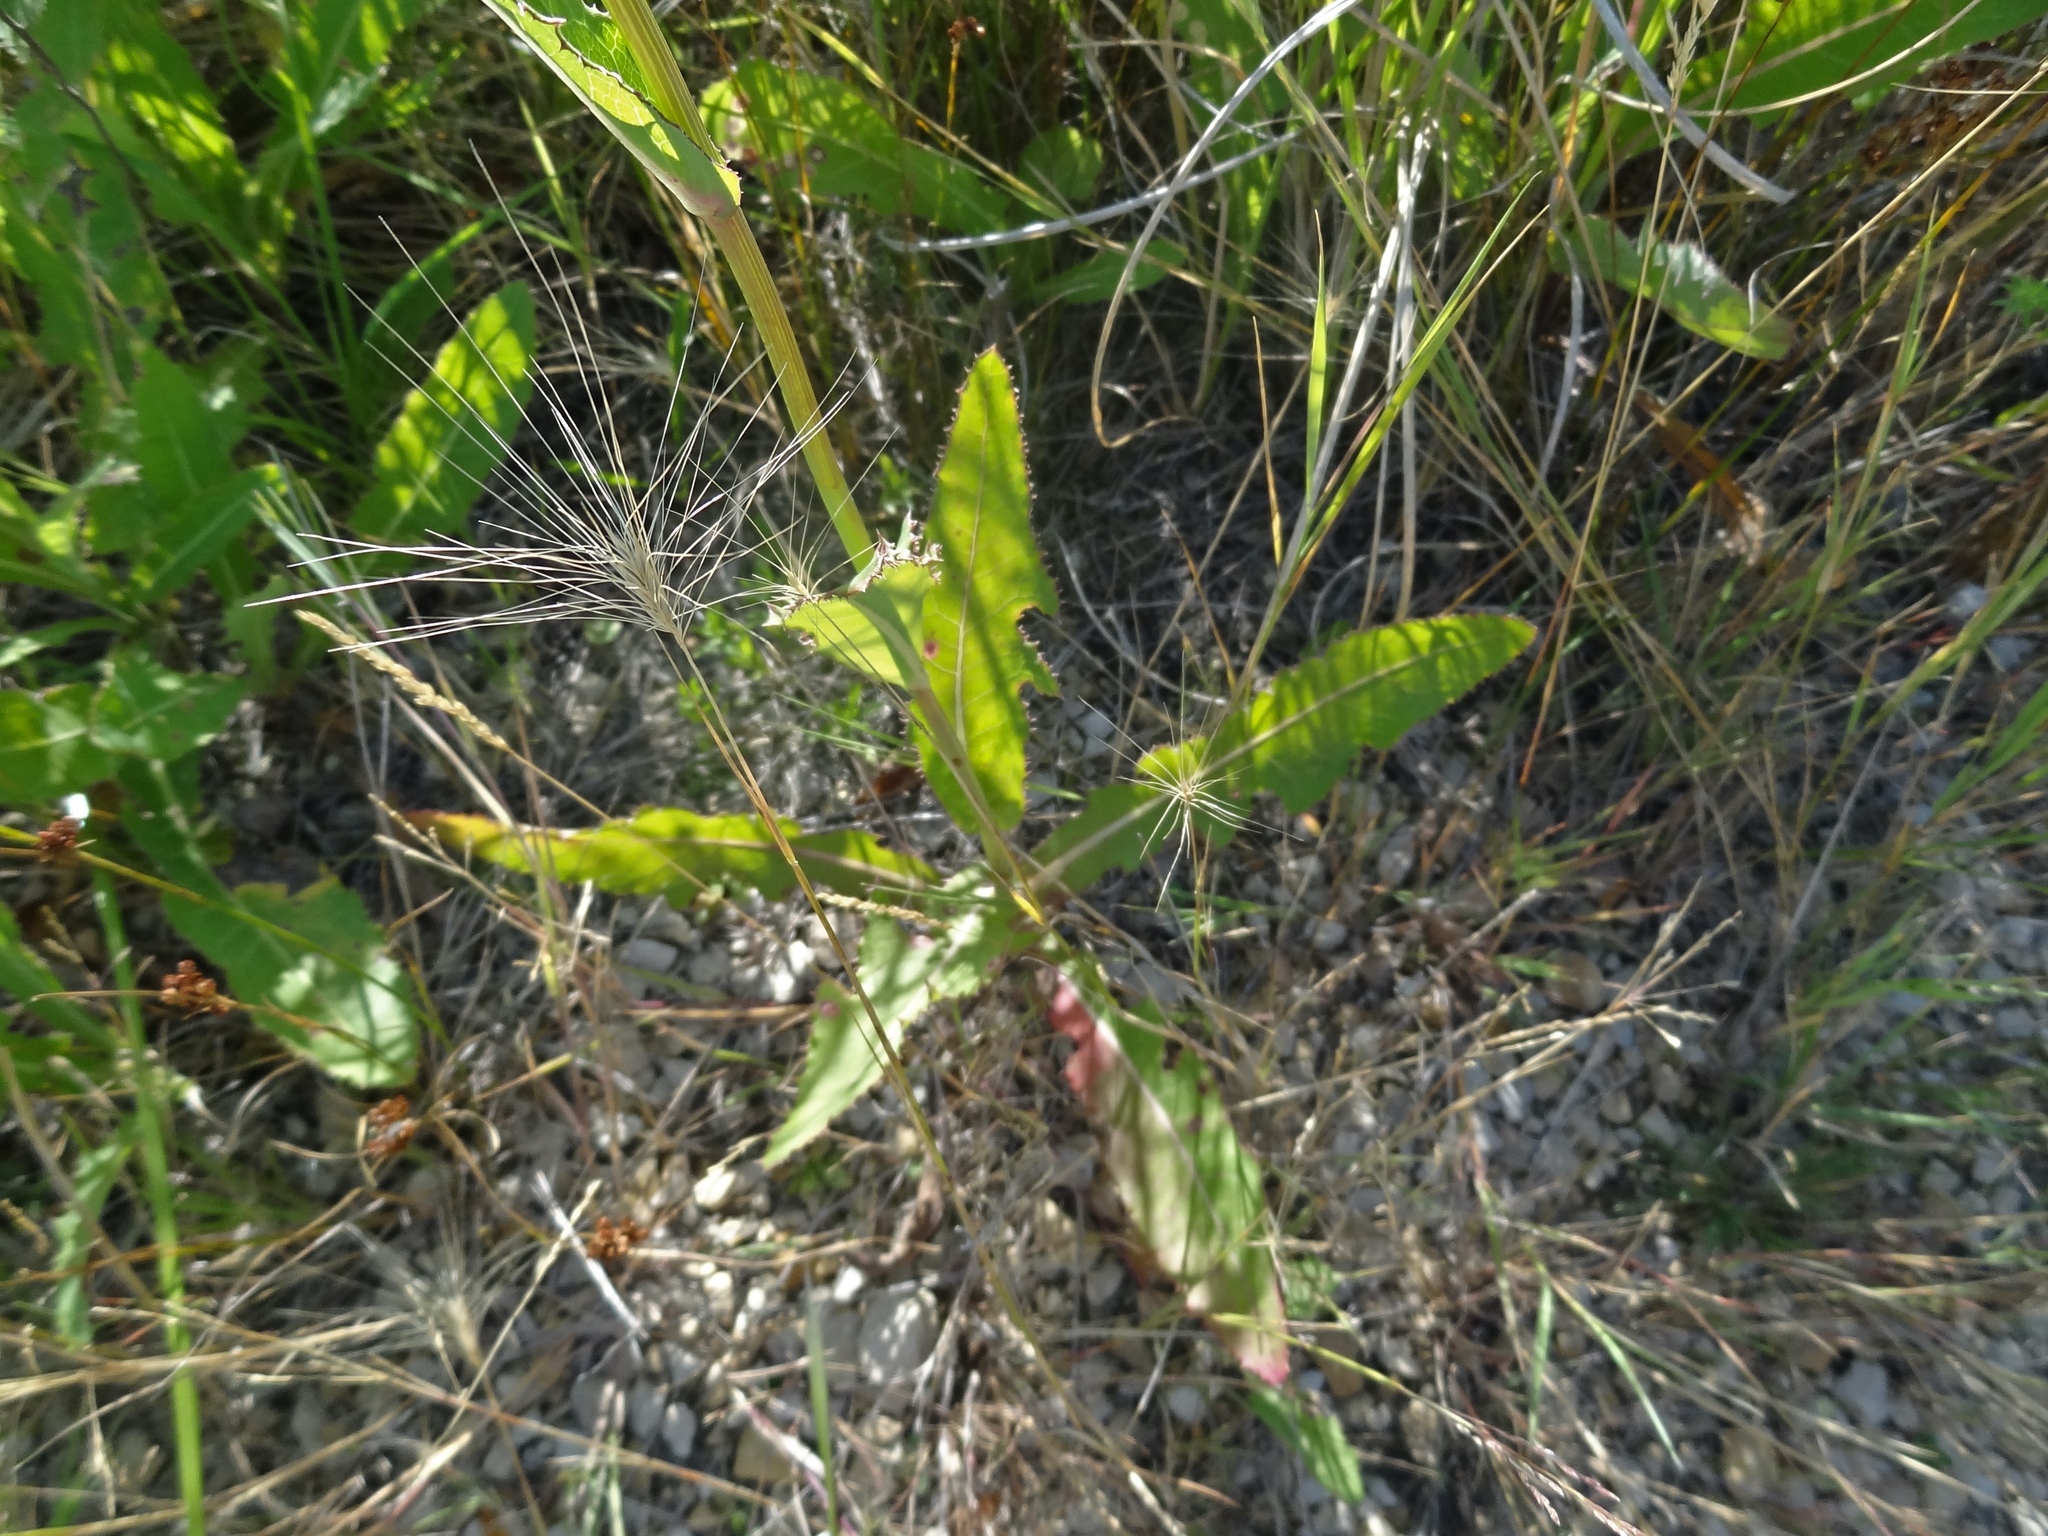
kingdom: Plantae
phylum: Tracheophyta
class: Magnoliopsida
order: Asterales
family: Asteraceae
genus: Sonchus
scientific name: Sonchus arvensis
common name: Perennial sow-thistle
